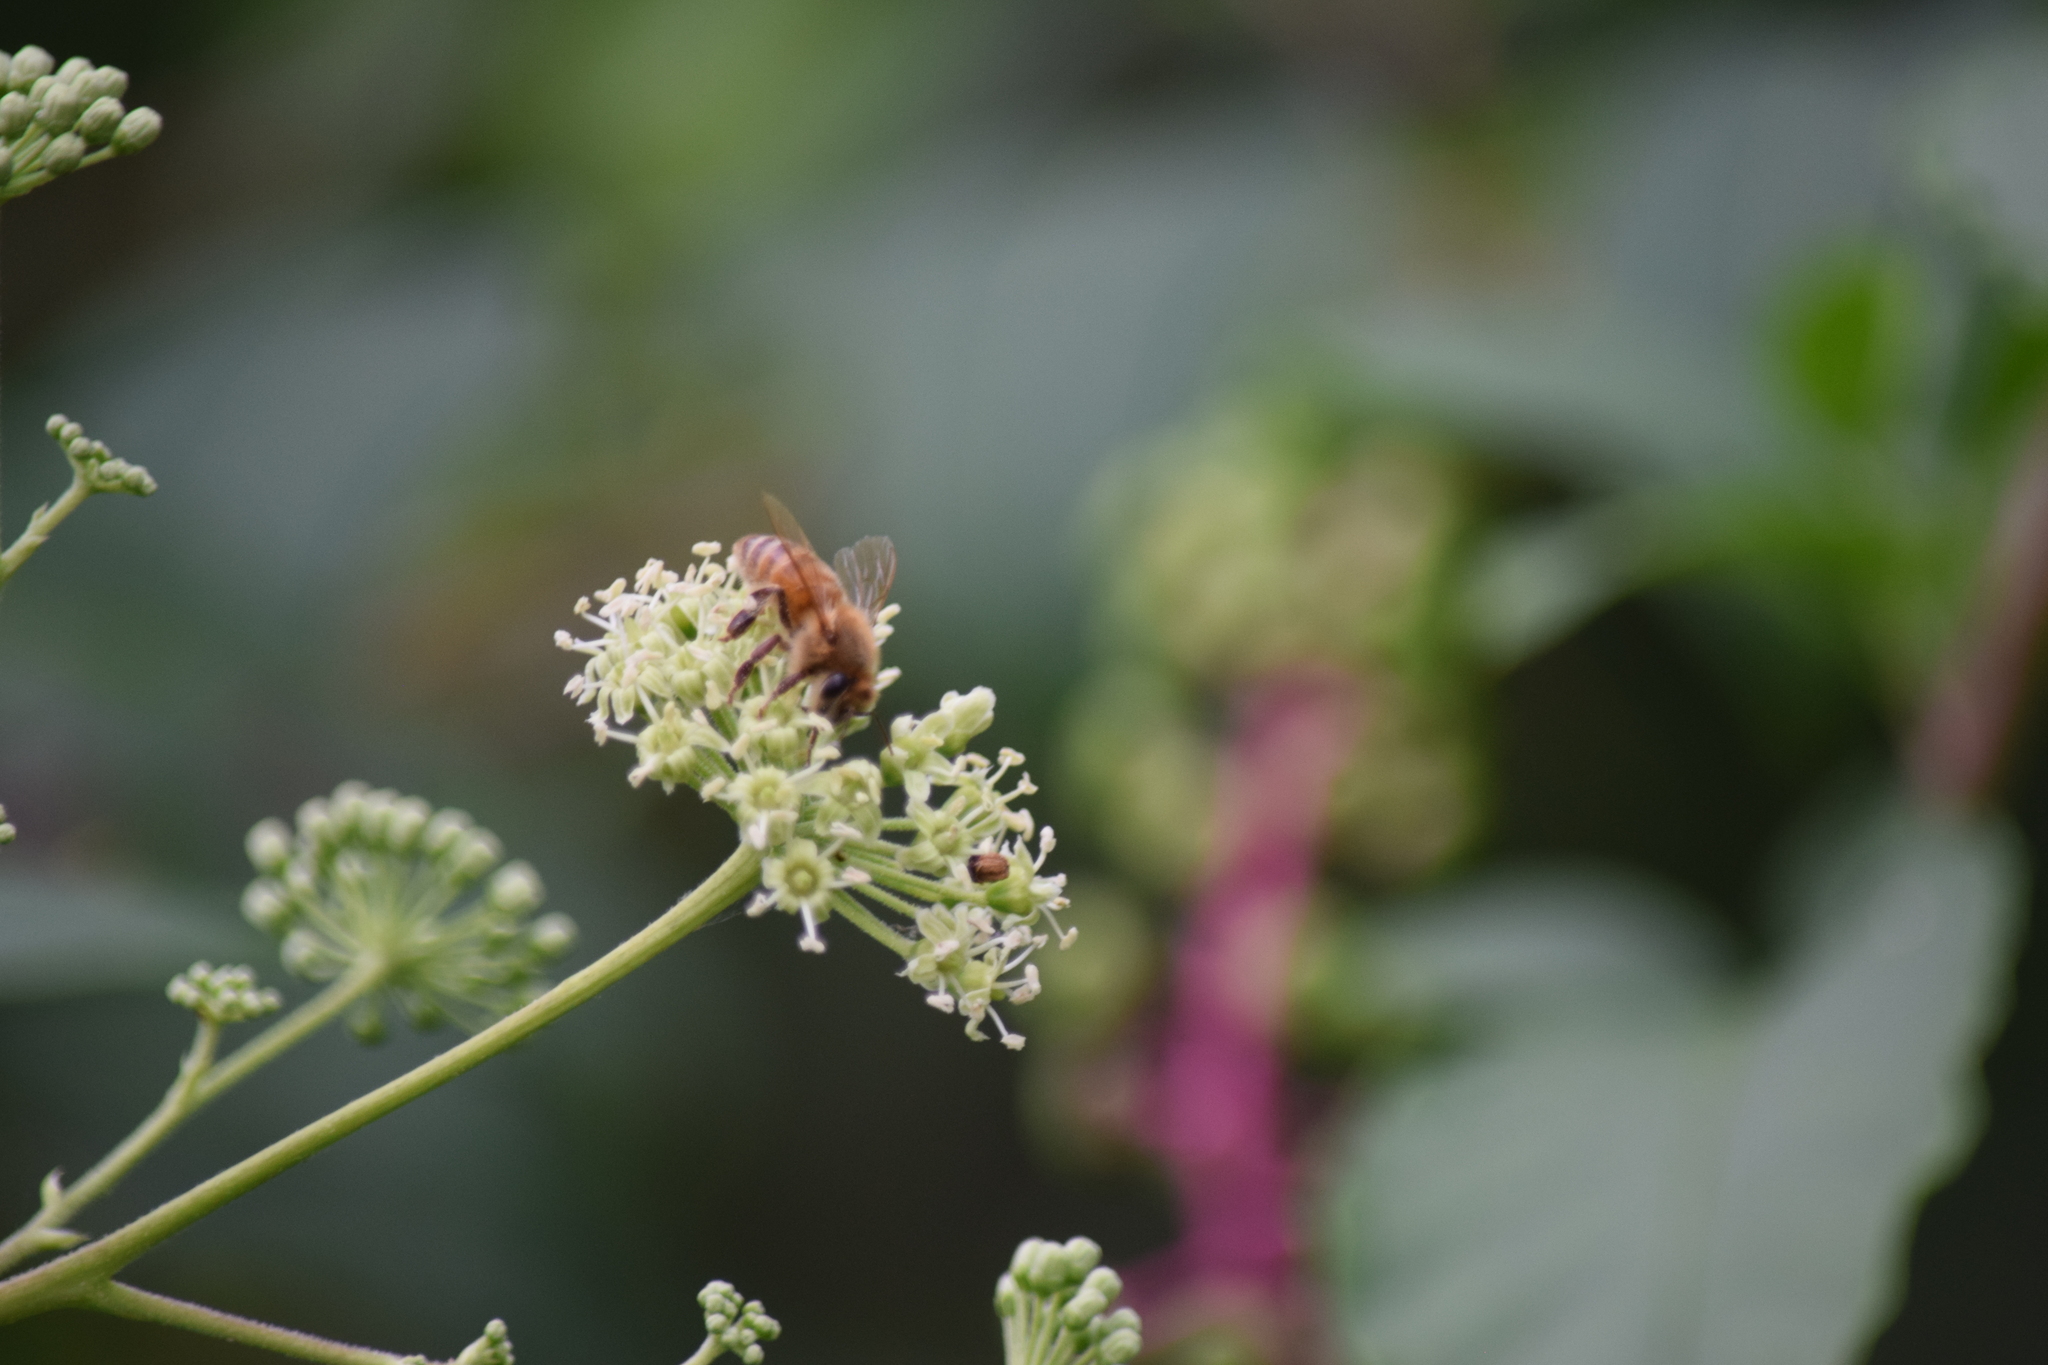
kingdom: Animalia
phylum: Arthropoda
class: Insecta
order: Hymenoptera
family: Apidae
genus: Apis
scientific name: Apis mellifera
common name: Honey bee
